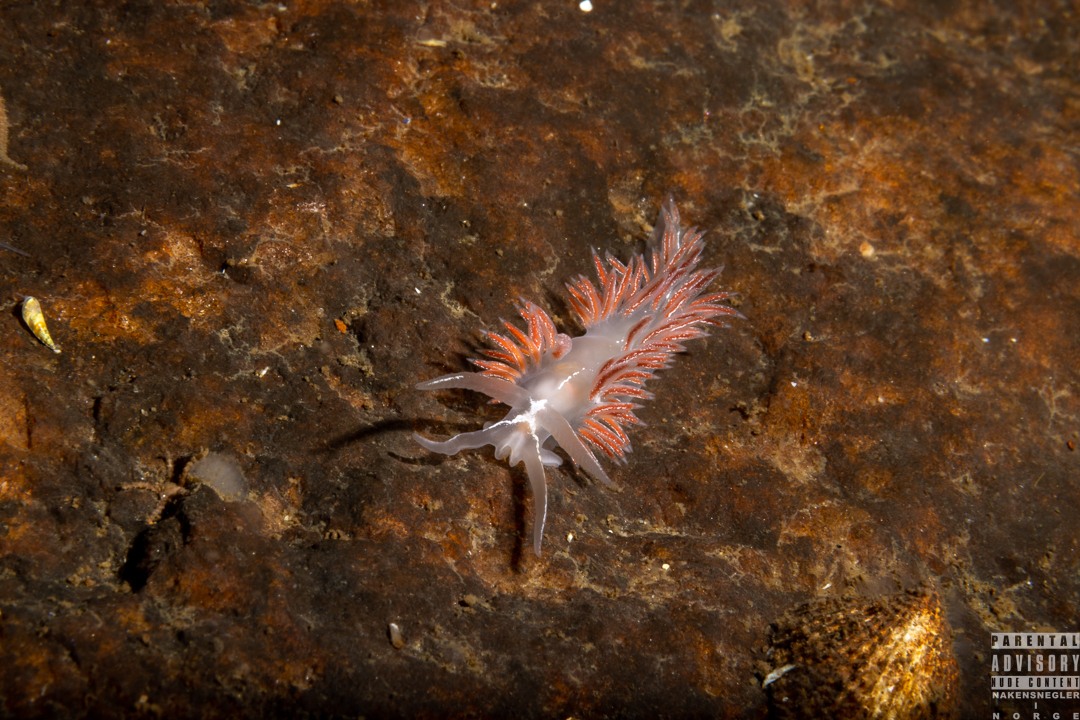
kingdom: Animalia
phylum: Mollusca
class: Gastropoda
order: Nudibranchia
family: Coryphellidae
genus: Coryphella
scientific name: Coryphella chriskaugei
